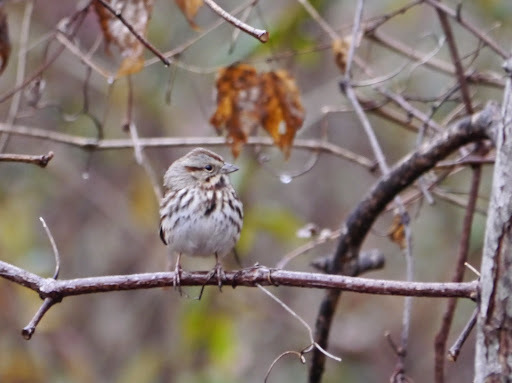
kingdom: Animalia
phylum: Chordata
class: Aves
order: Passeriformes
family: Passerellidae
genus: Melospiza
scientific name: Melospiza melodia
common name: Song sparrow
